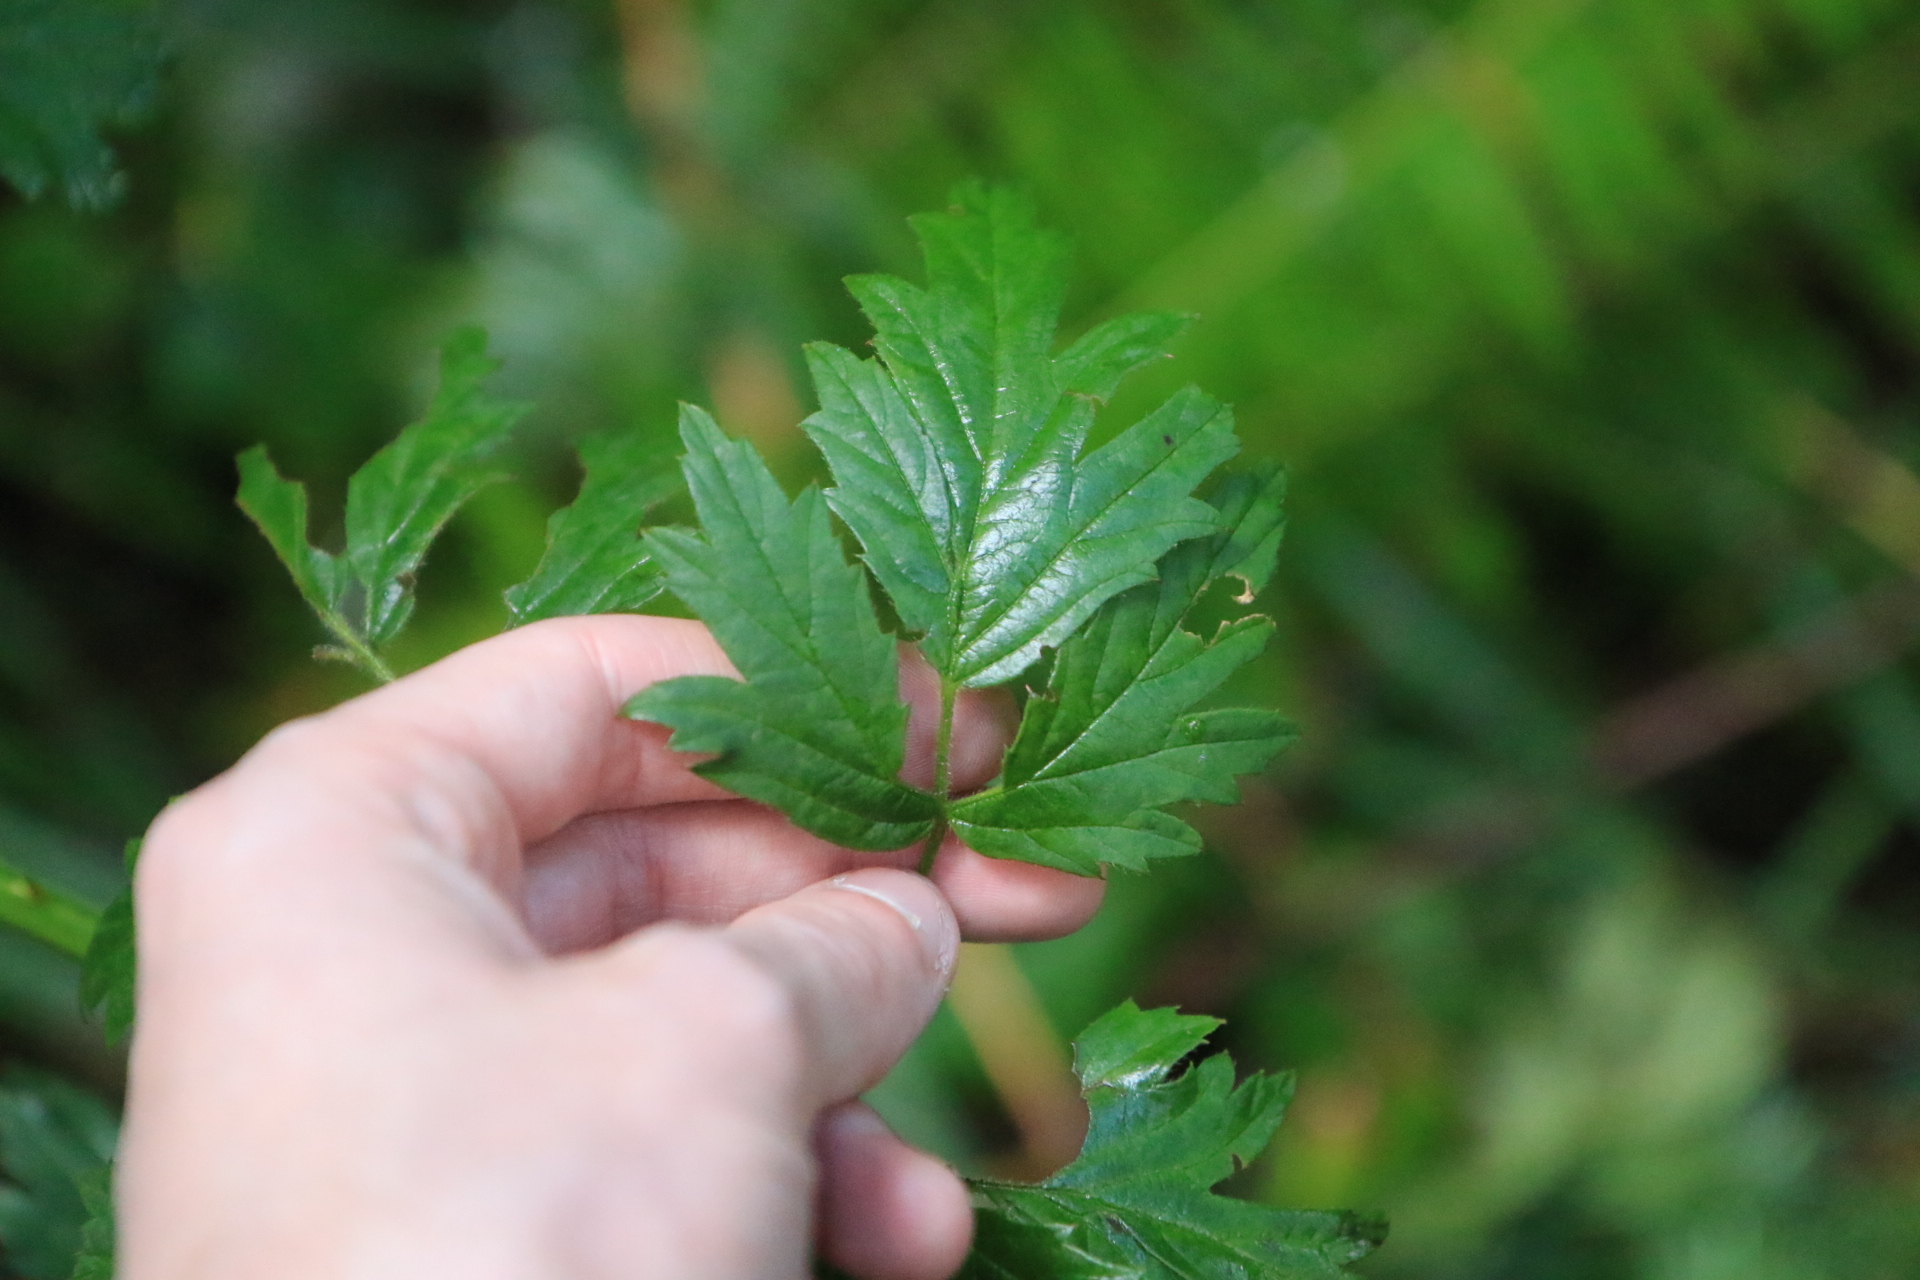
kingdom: Plantae
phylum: Tracheophyta
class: Magnoliopsida
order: Rosales
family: Rosaceae
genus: Rubus
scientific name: Rubus laciniatus
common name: Evergreen blackberry
